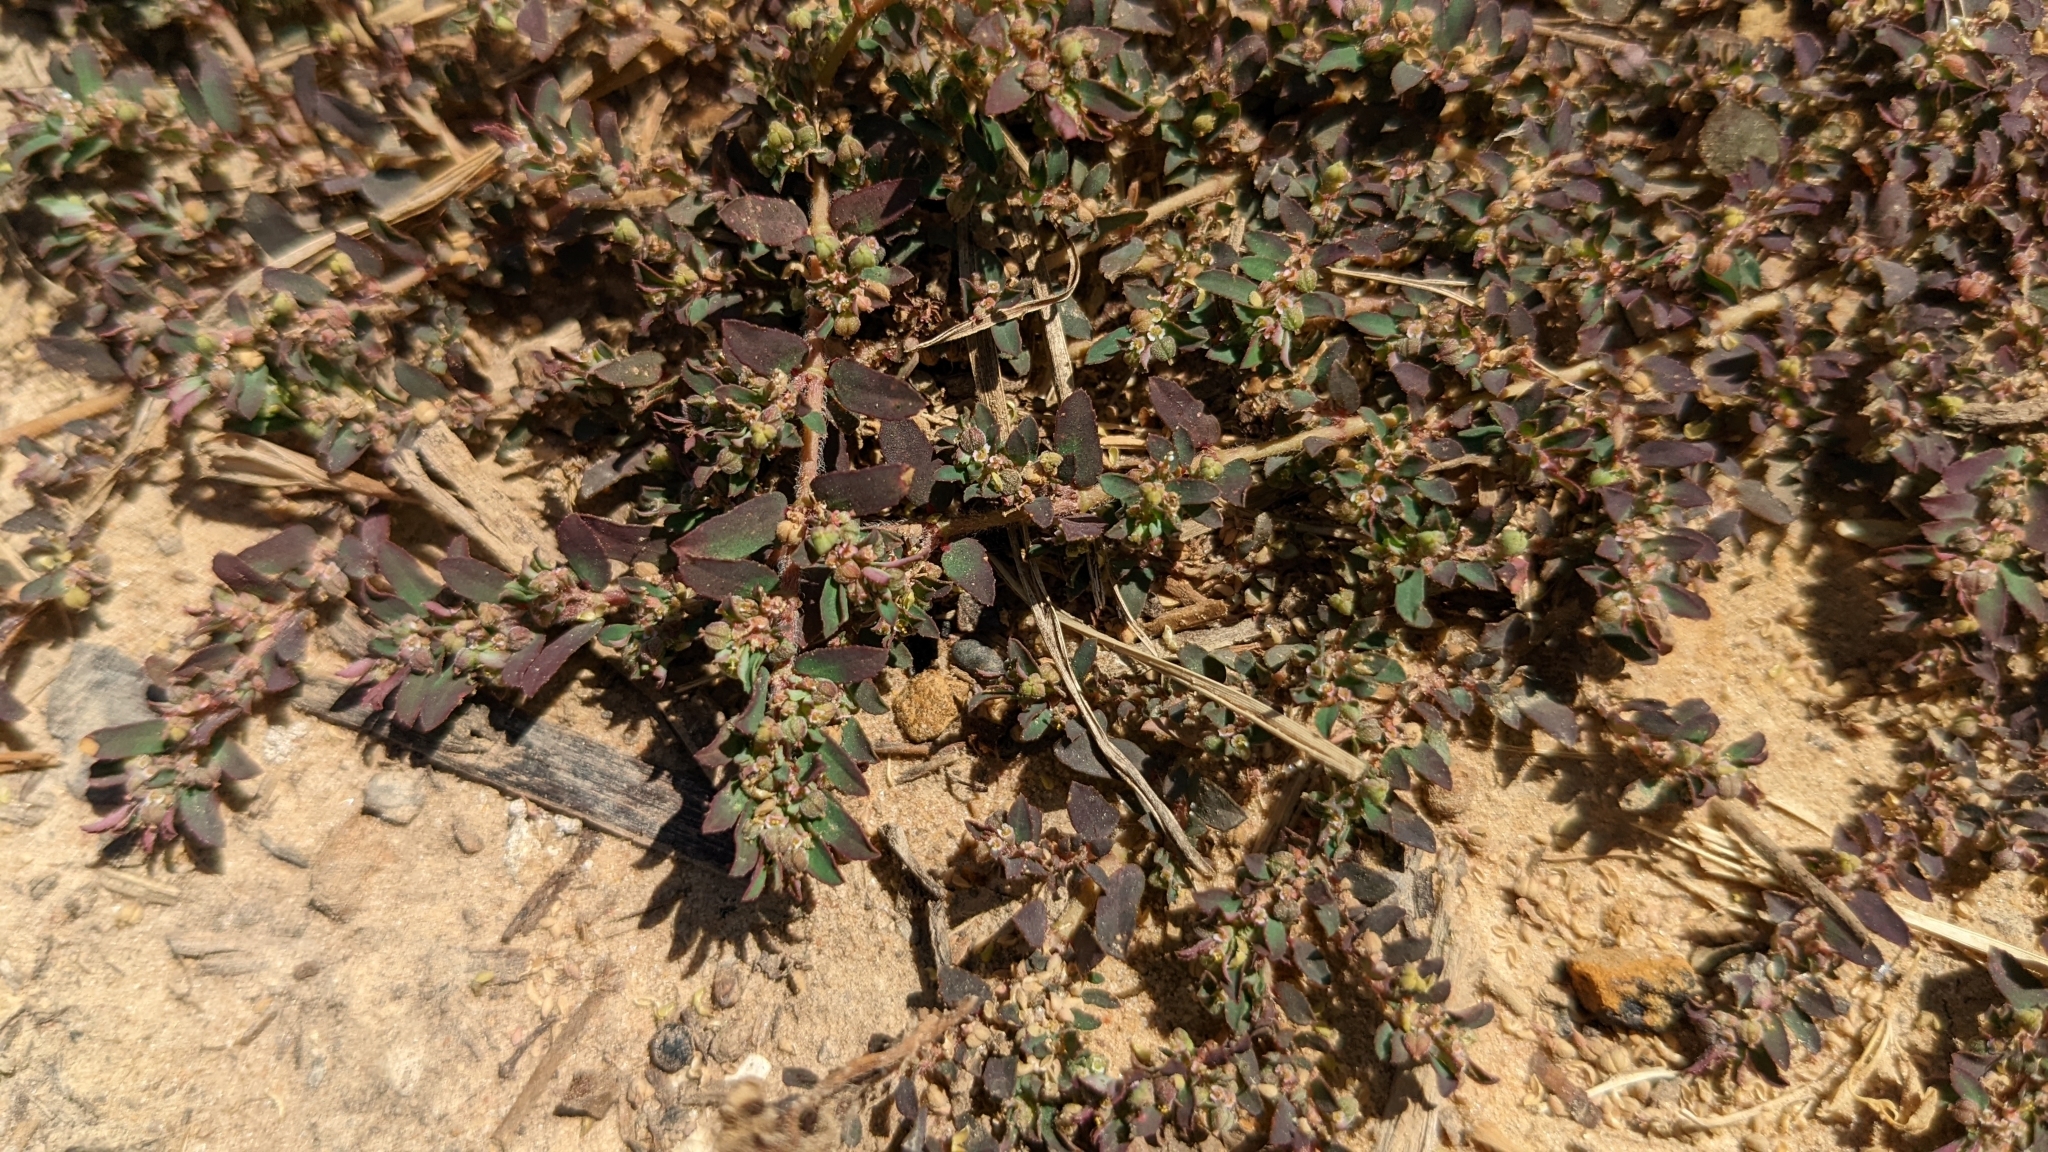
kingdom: Plantae
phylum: Tracheophyta
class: Magnoliopsida
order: Malpighiales
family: Euphorbiaceae
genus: Euphorbia
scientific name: Euphorbia maculata
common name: Spotted spurge
